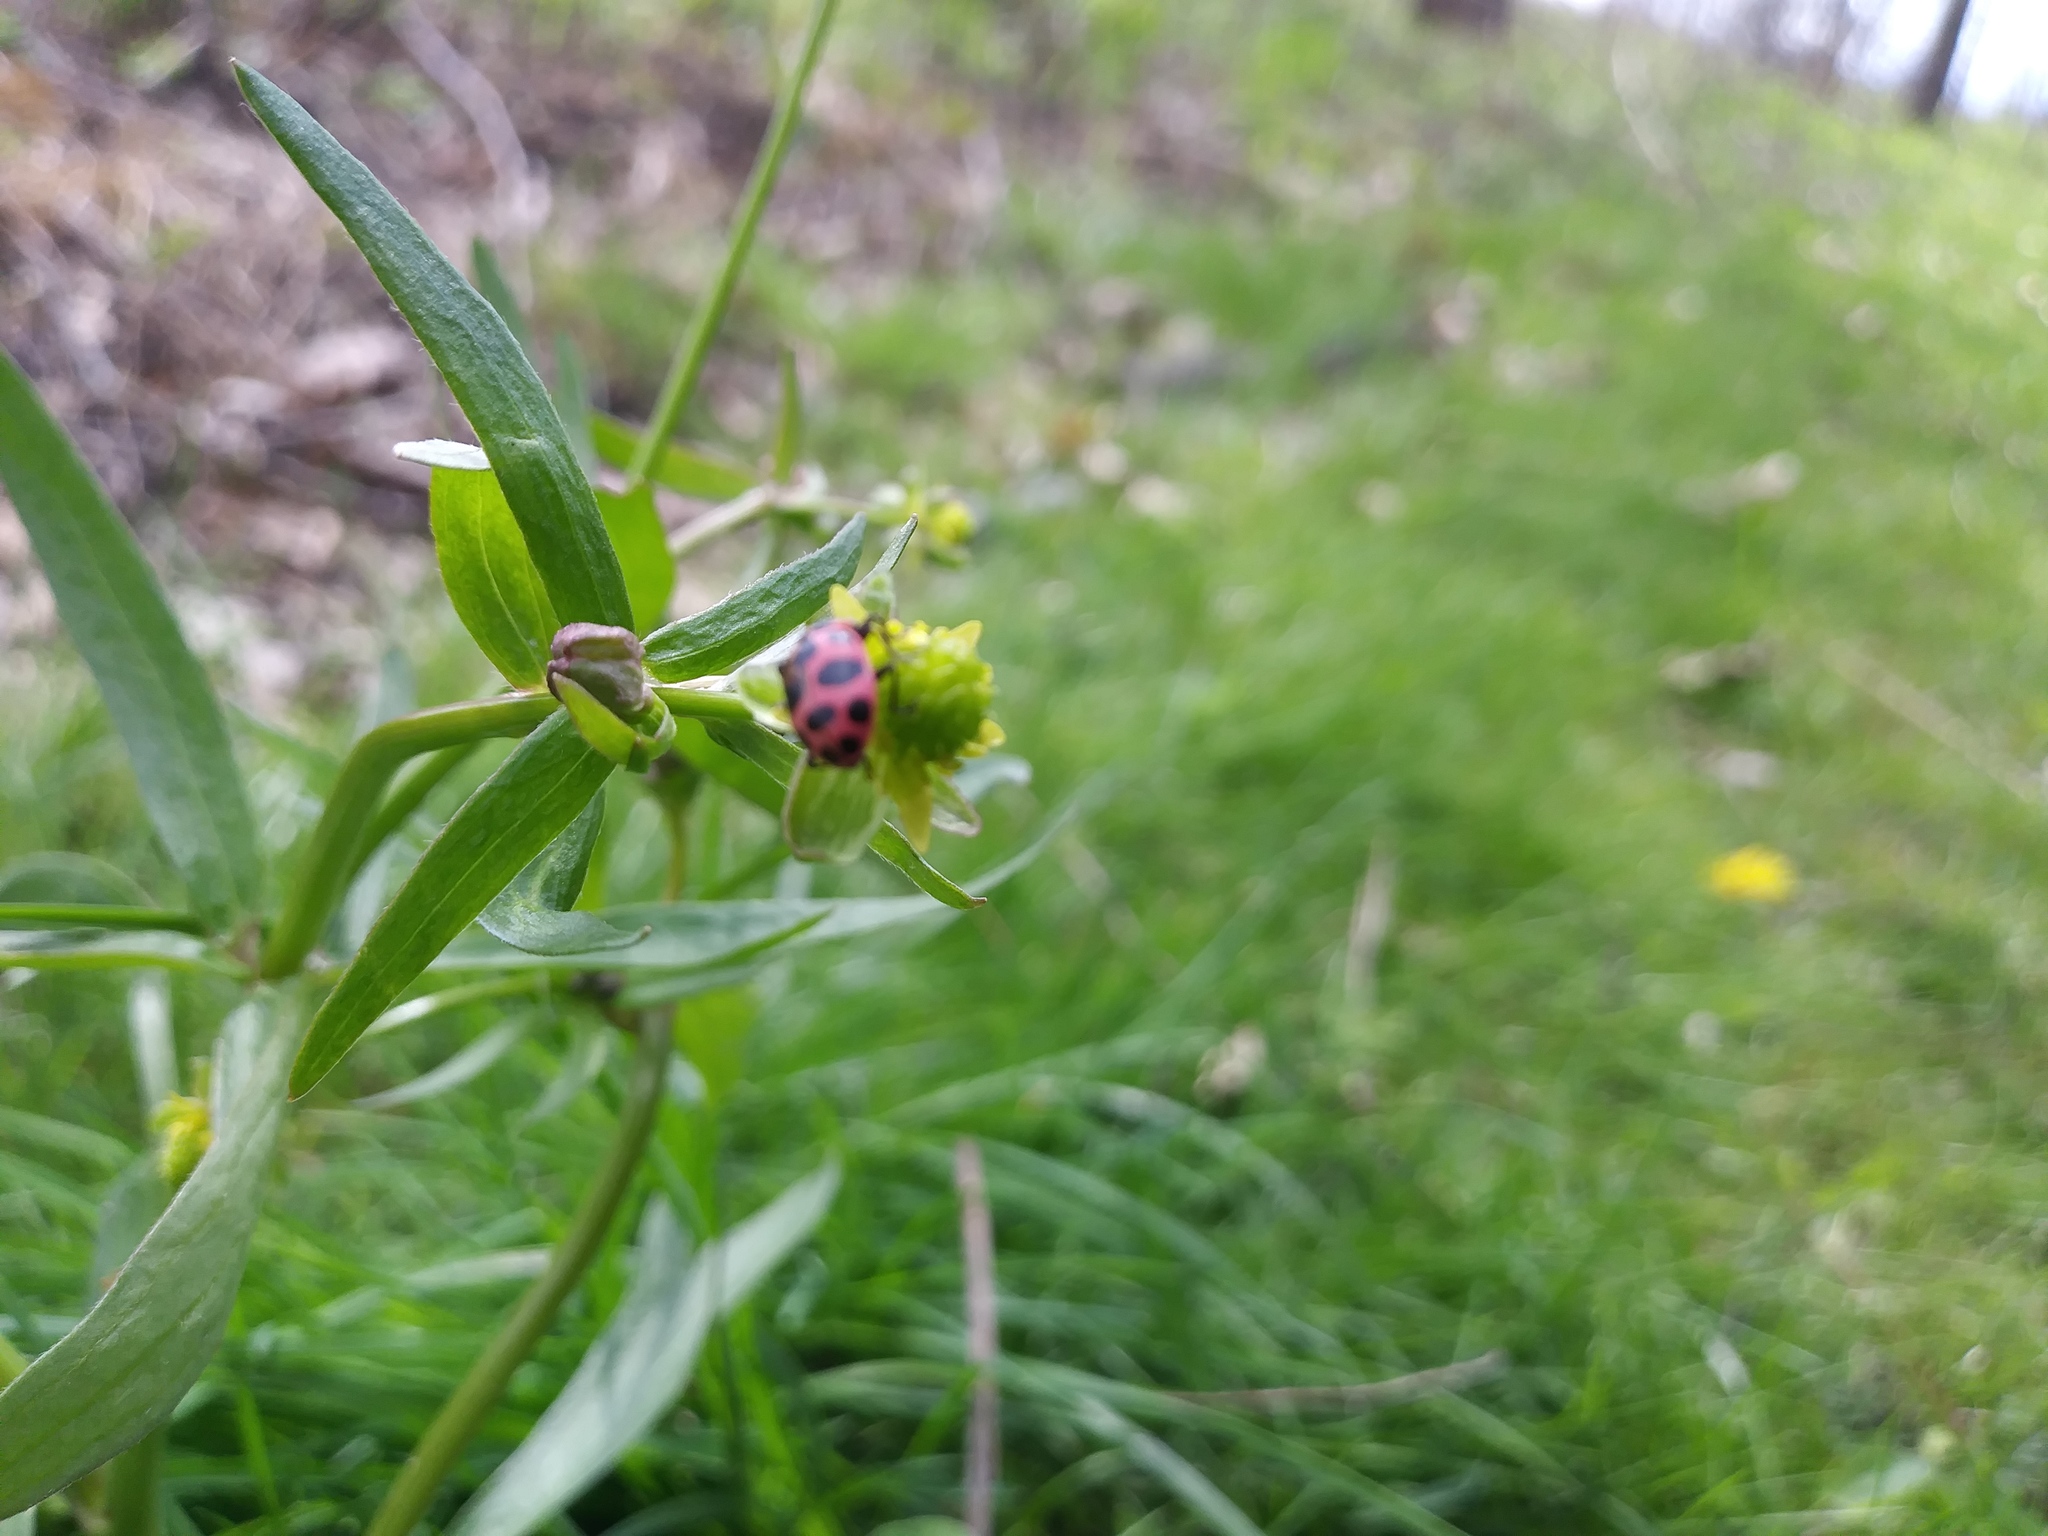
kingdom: Animalia
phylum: Arthropoda
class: Insecta
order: Coleoptera
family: Coccinellidae
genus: Coleomegilla
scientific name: Coleomegilla maculata
